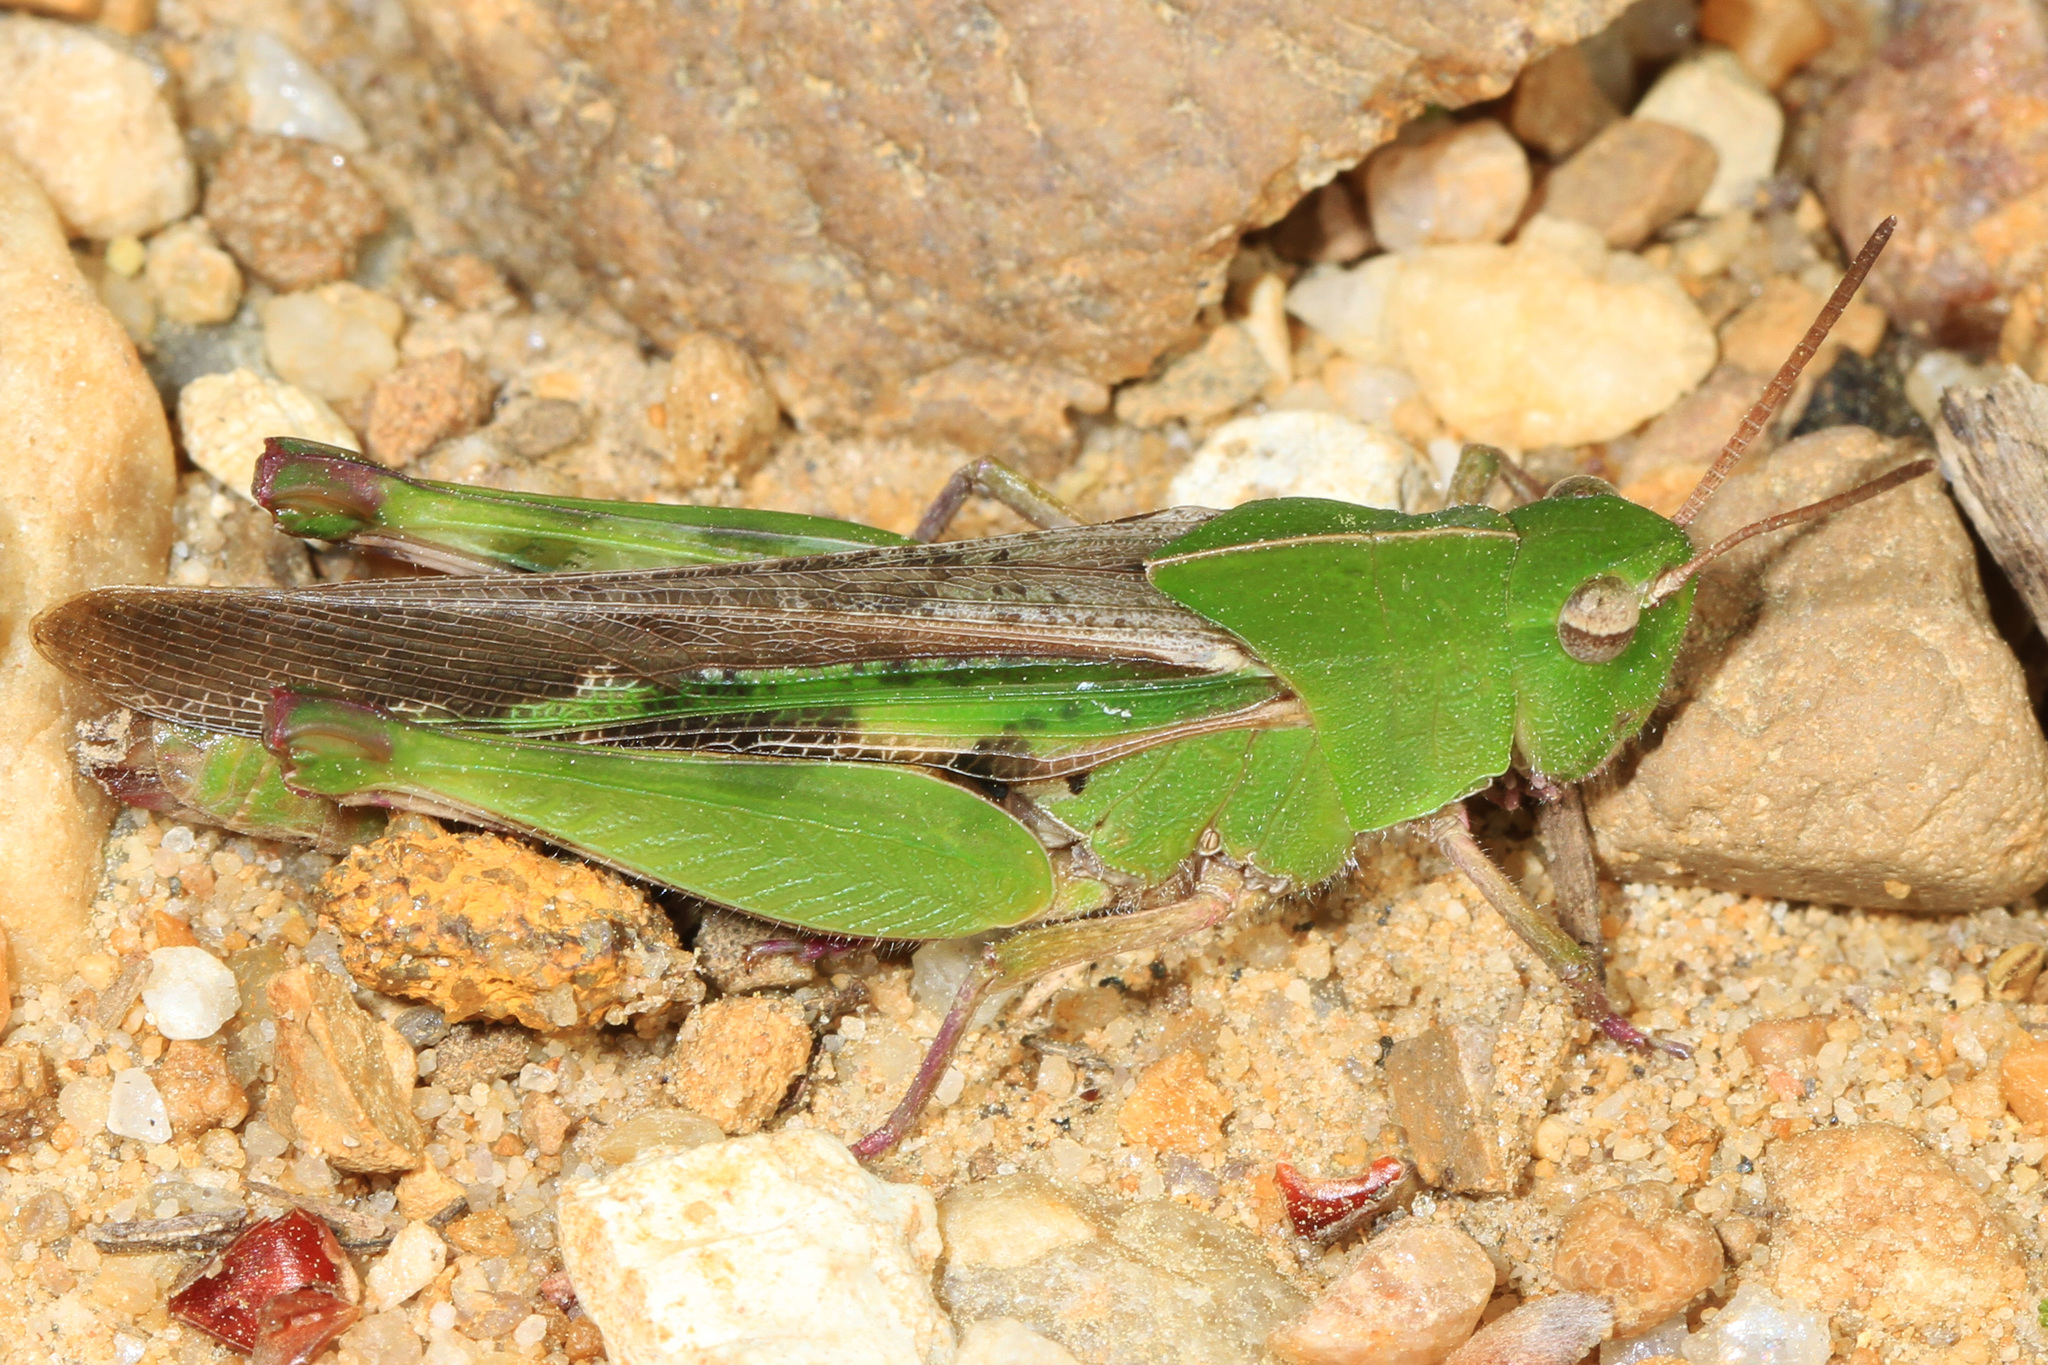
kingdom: Animalia
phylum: Arthropoda
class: Insecta
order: Orthoptera
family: Acrididae
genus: Chortophaga
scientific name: Chortophaga viridifasciata
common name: Green-striped grasshopper
